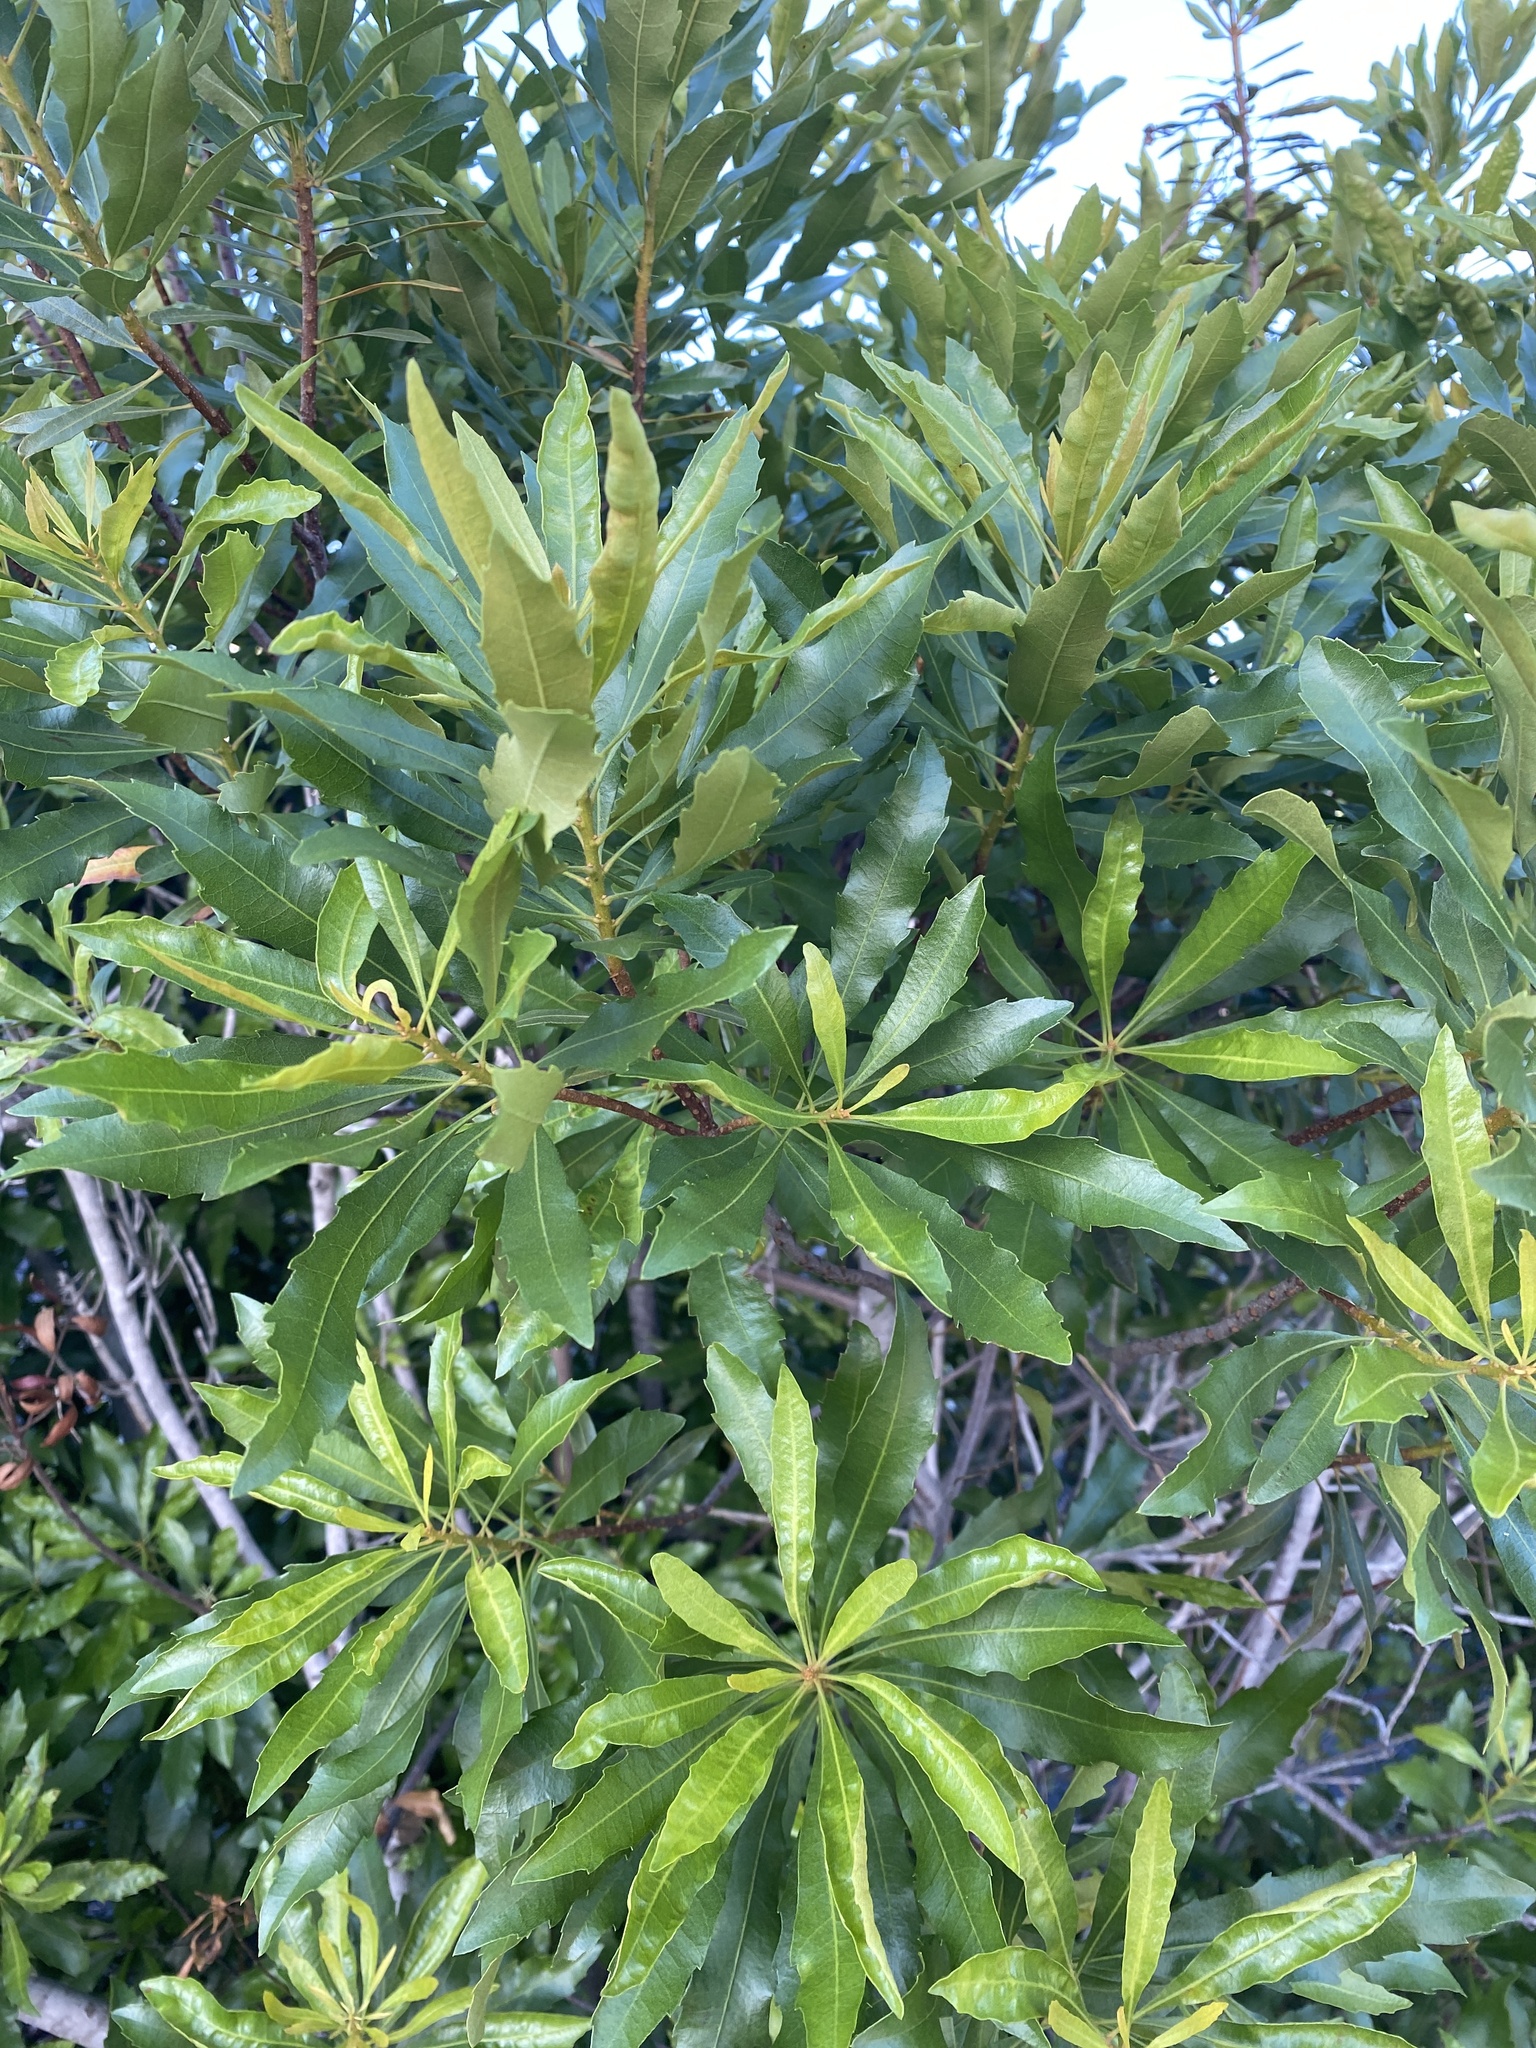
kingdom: Plantae
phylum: Tracheophyta
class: Magnoliopsida
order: Fagales
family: Myricaceae
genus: Morella
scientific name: Morella cerifera
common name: Wax myrtle
